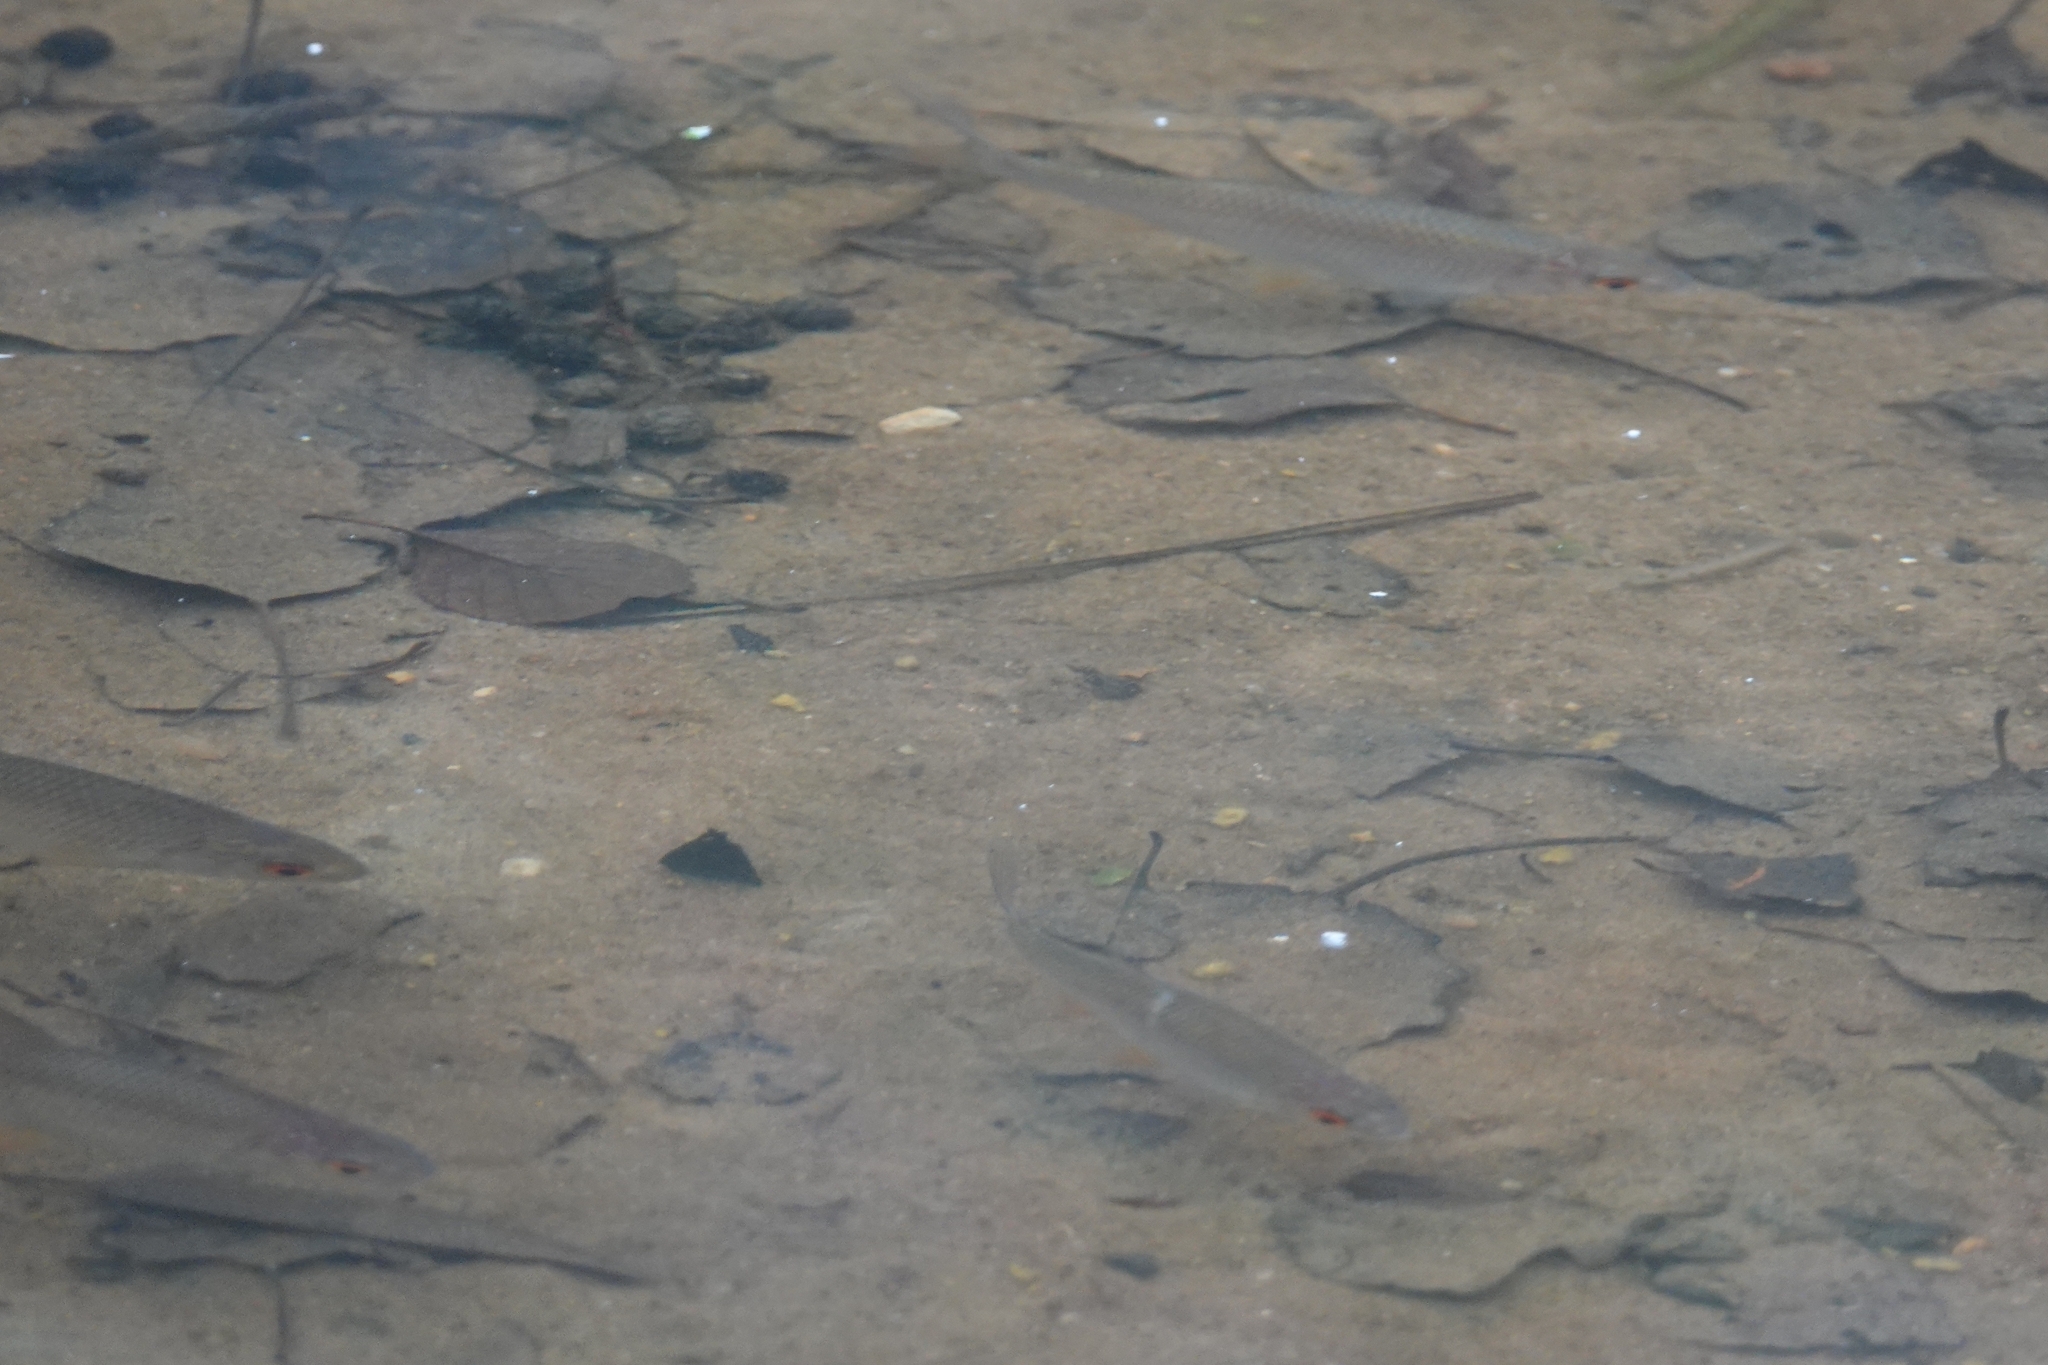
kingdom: Animalia
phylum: Chordata
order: Cypriniformes
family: Cyprinidae
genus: Rutilus
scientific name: Rutilus
